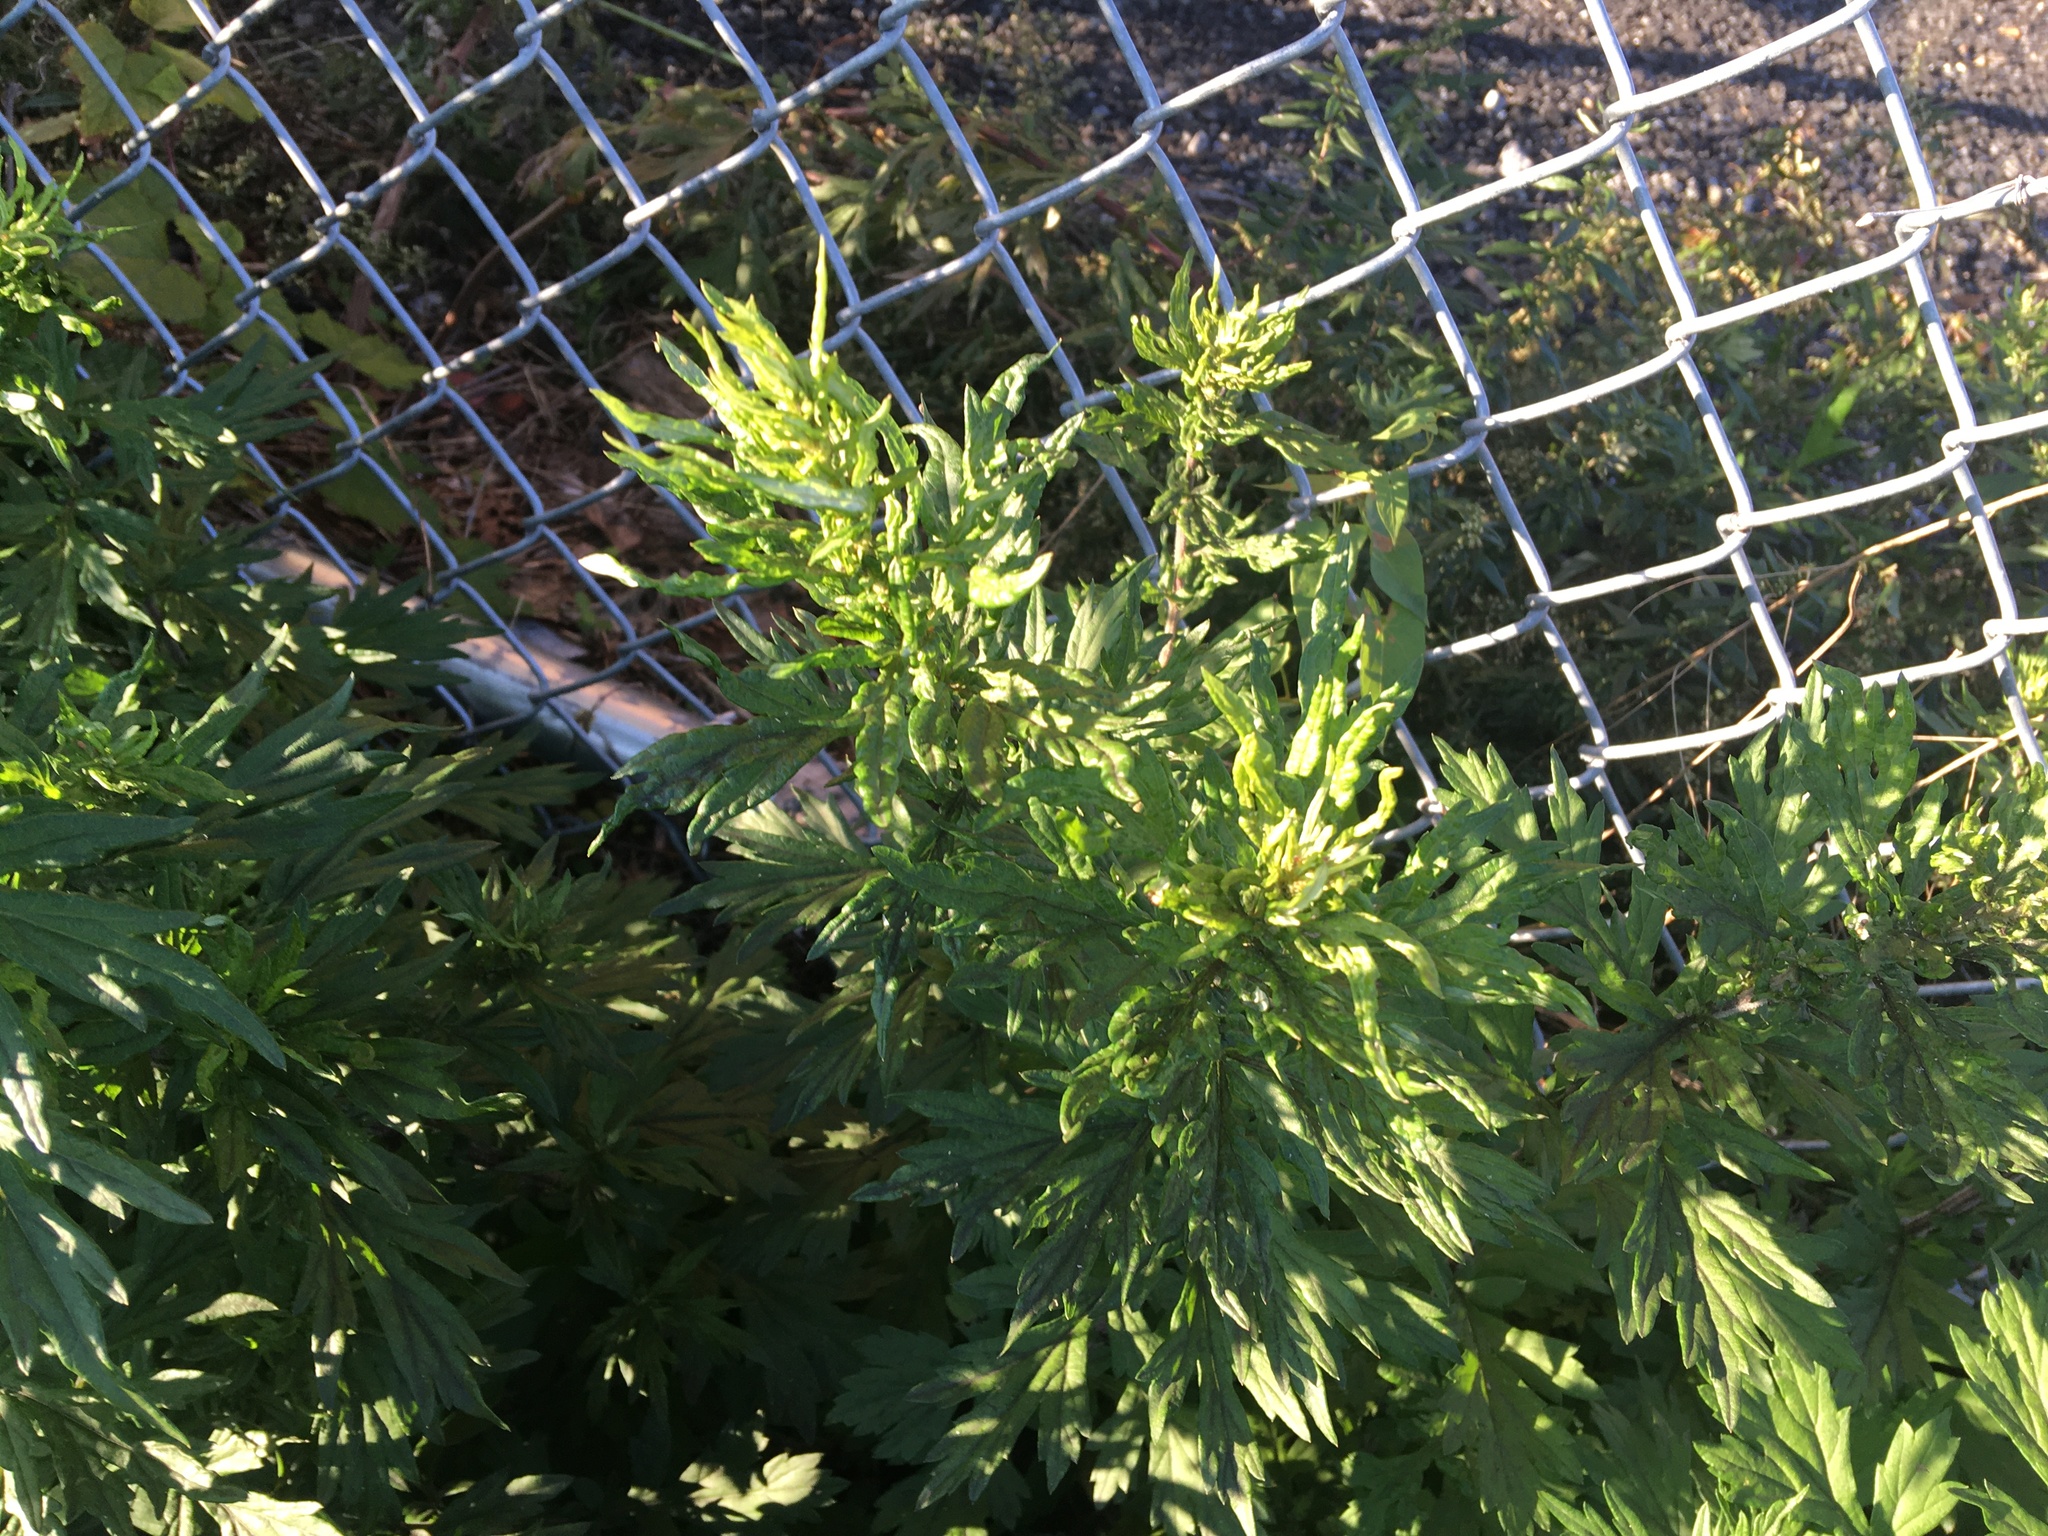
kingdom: Plantae
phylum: Tracheophyta
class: Magnoliopsida
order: Asterales
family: Asteraceae
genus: Artemisia
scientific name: Artemisia vulgaris
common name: Mugwort
